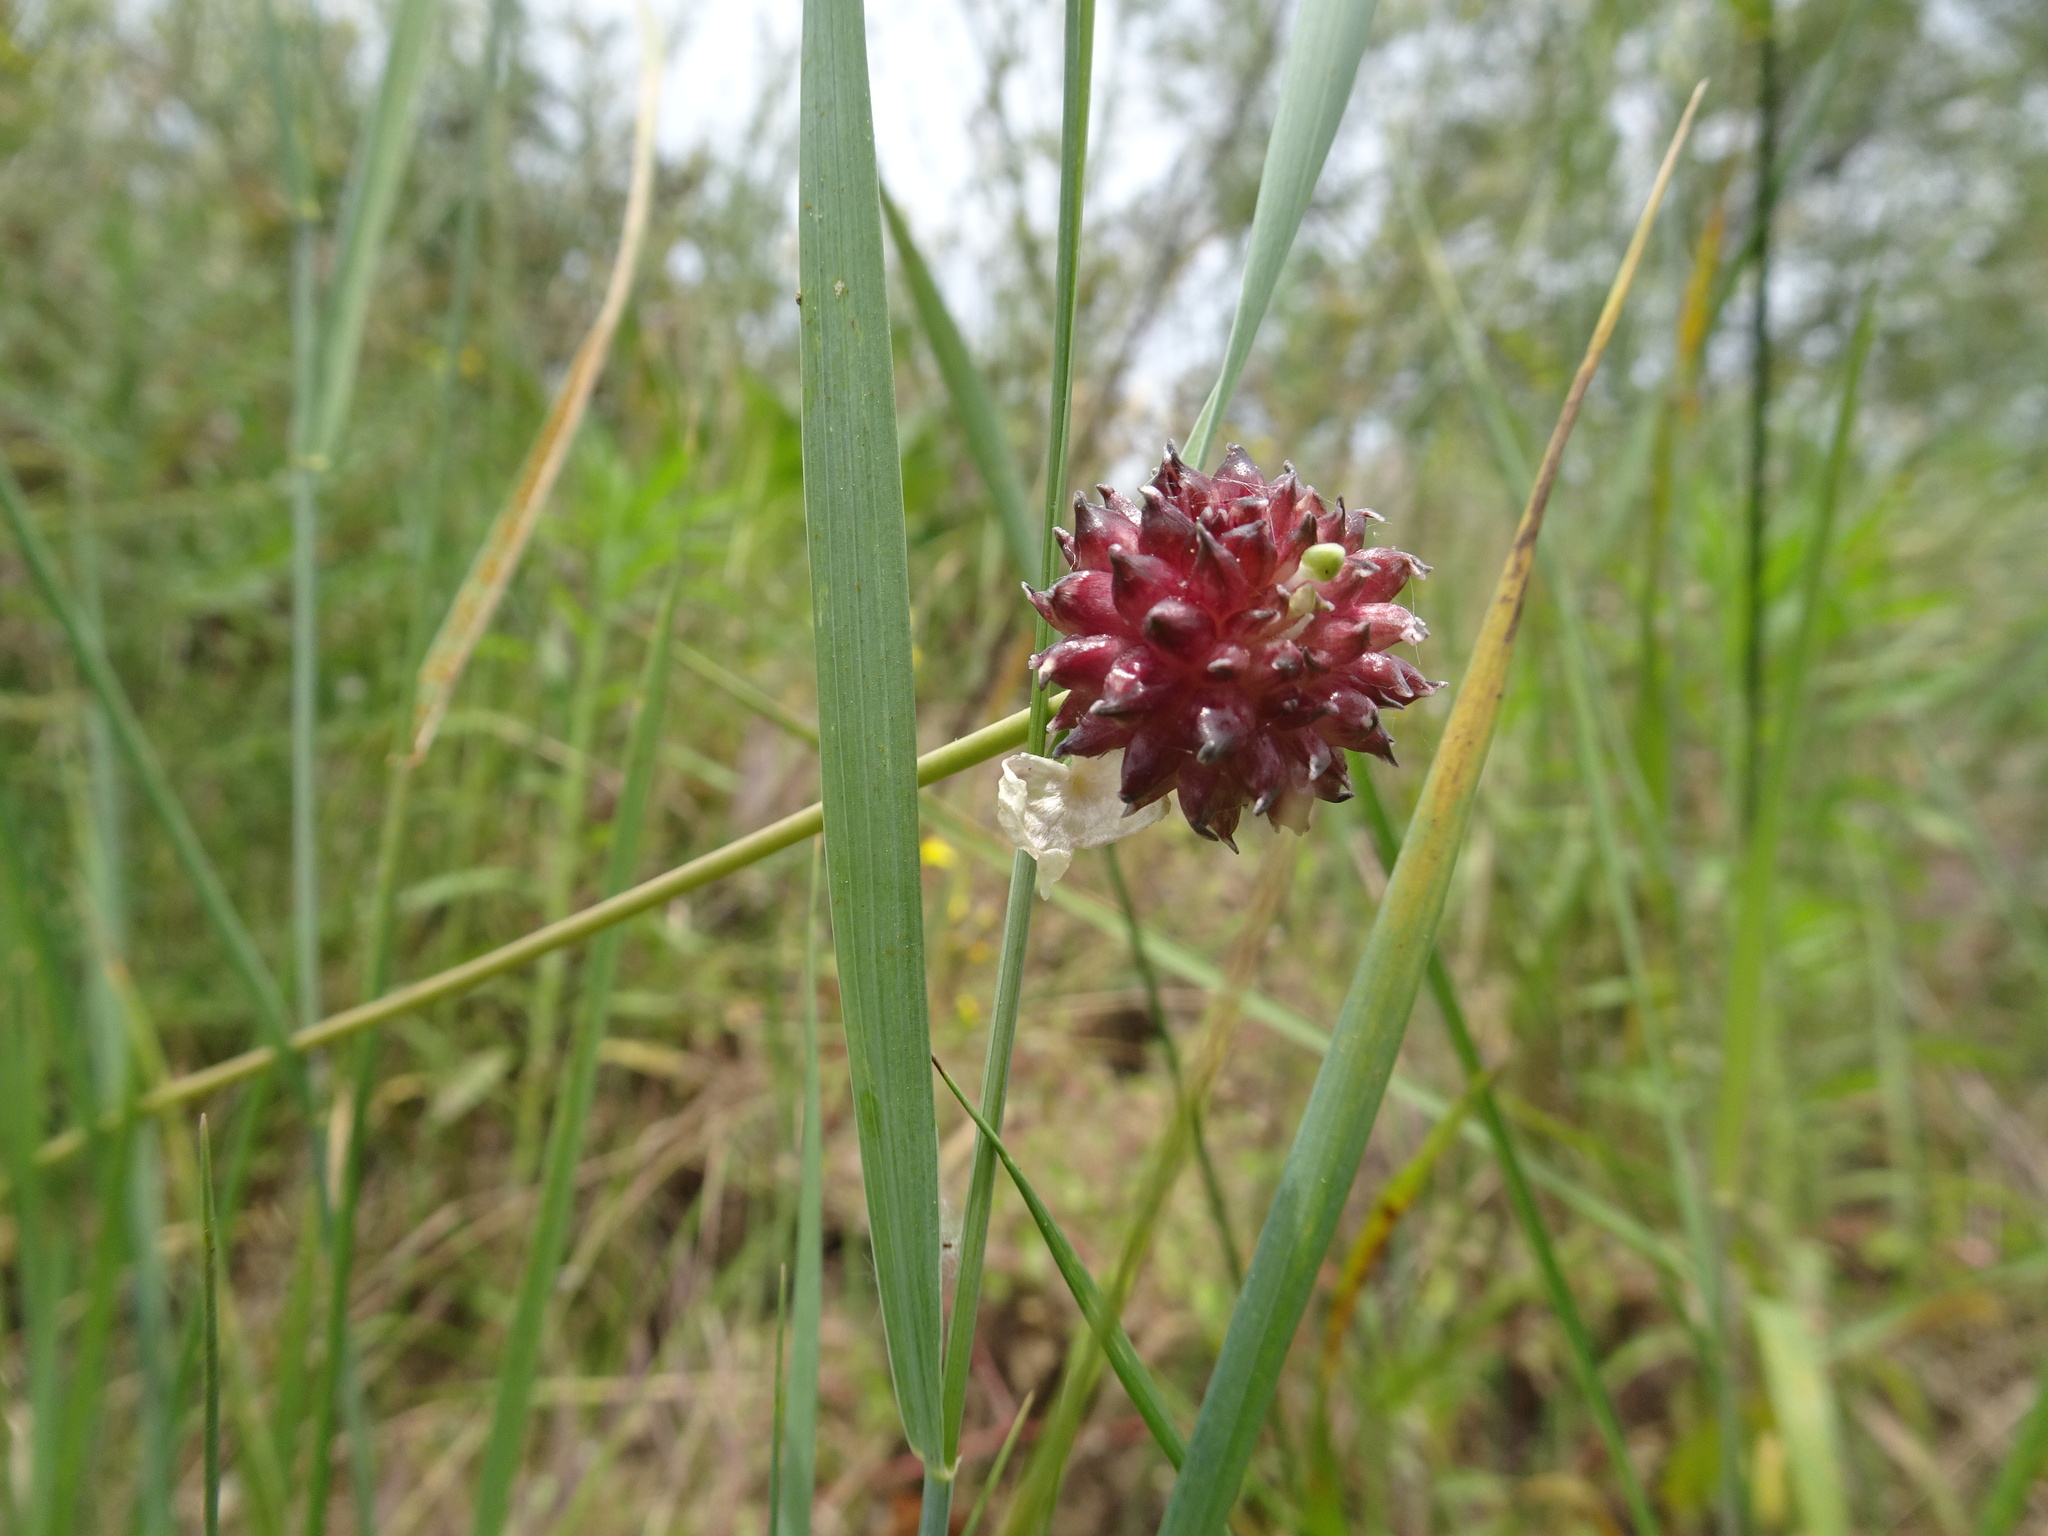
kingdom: Plantae
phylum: Tracheophyta
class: Liliopsida
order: Asparagales
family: Amaryllidaceae
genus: Allium
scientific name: Allium vineale
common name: Crow garlic
